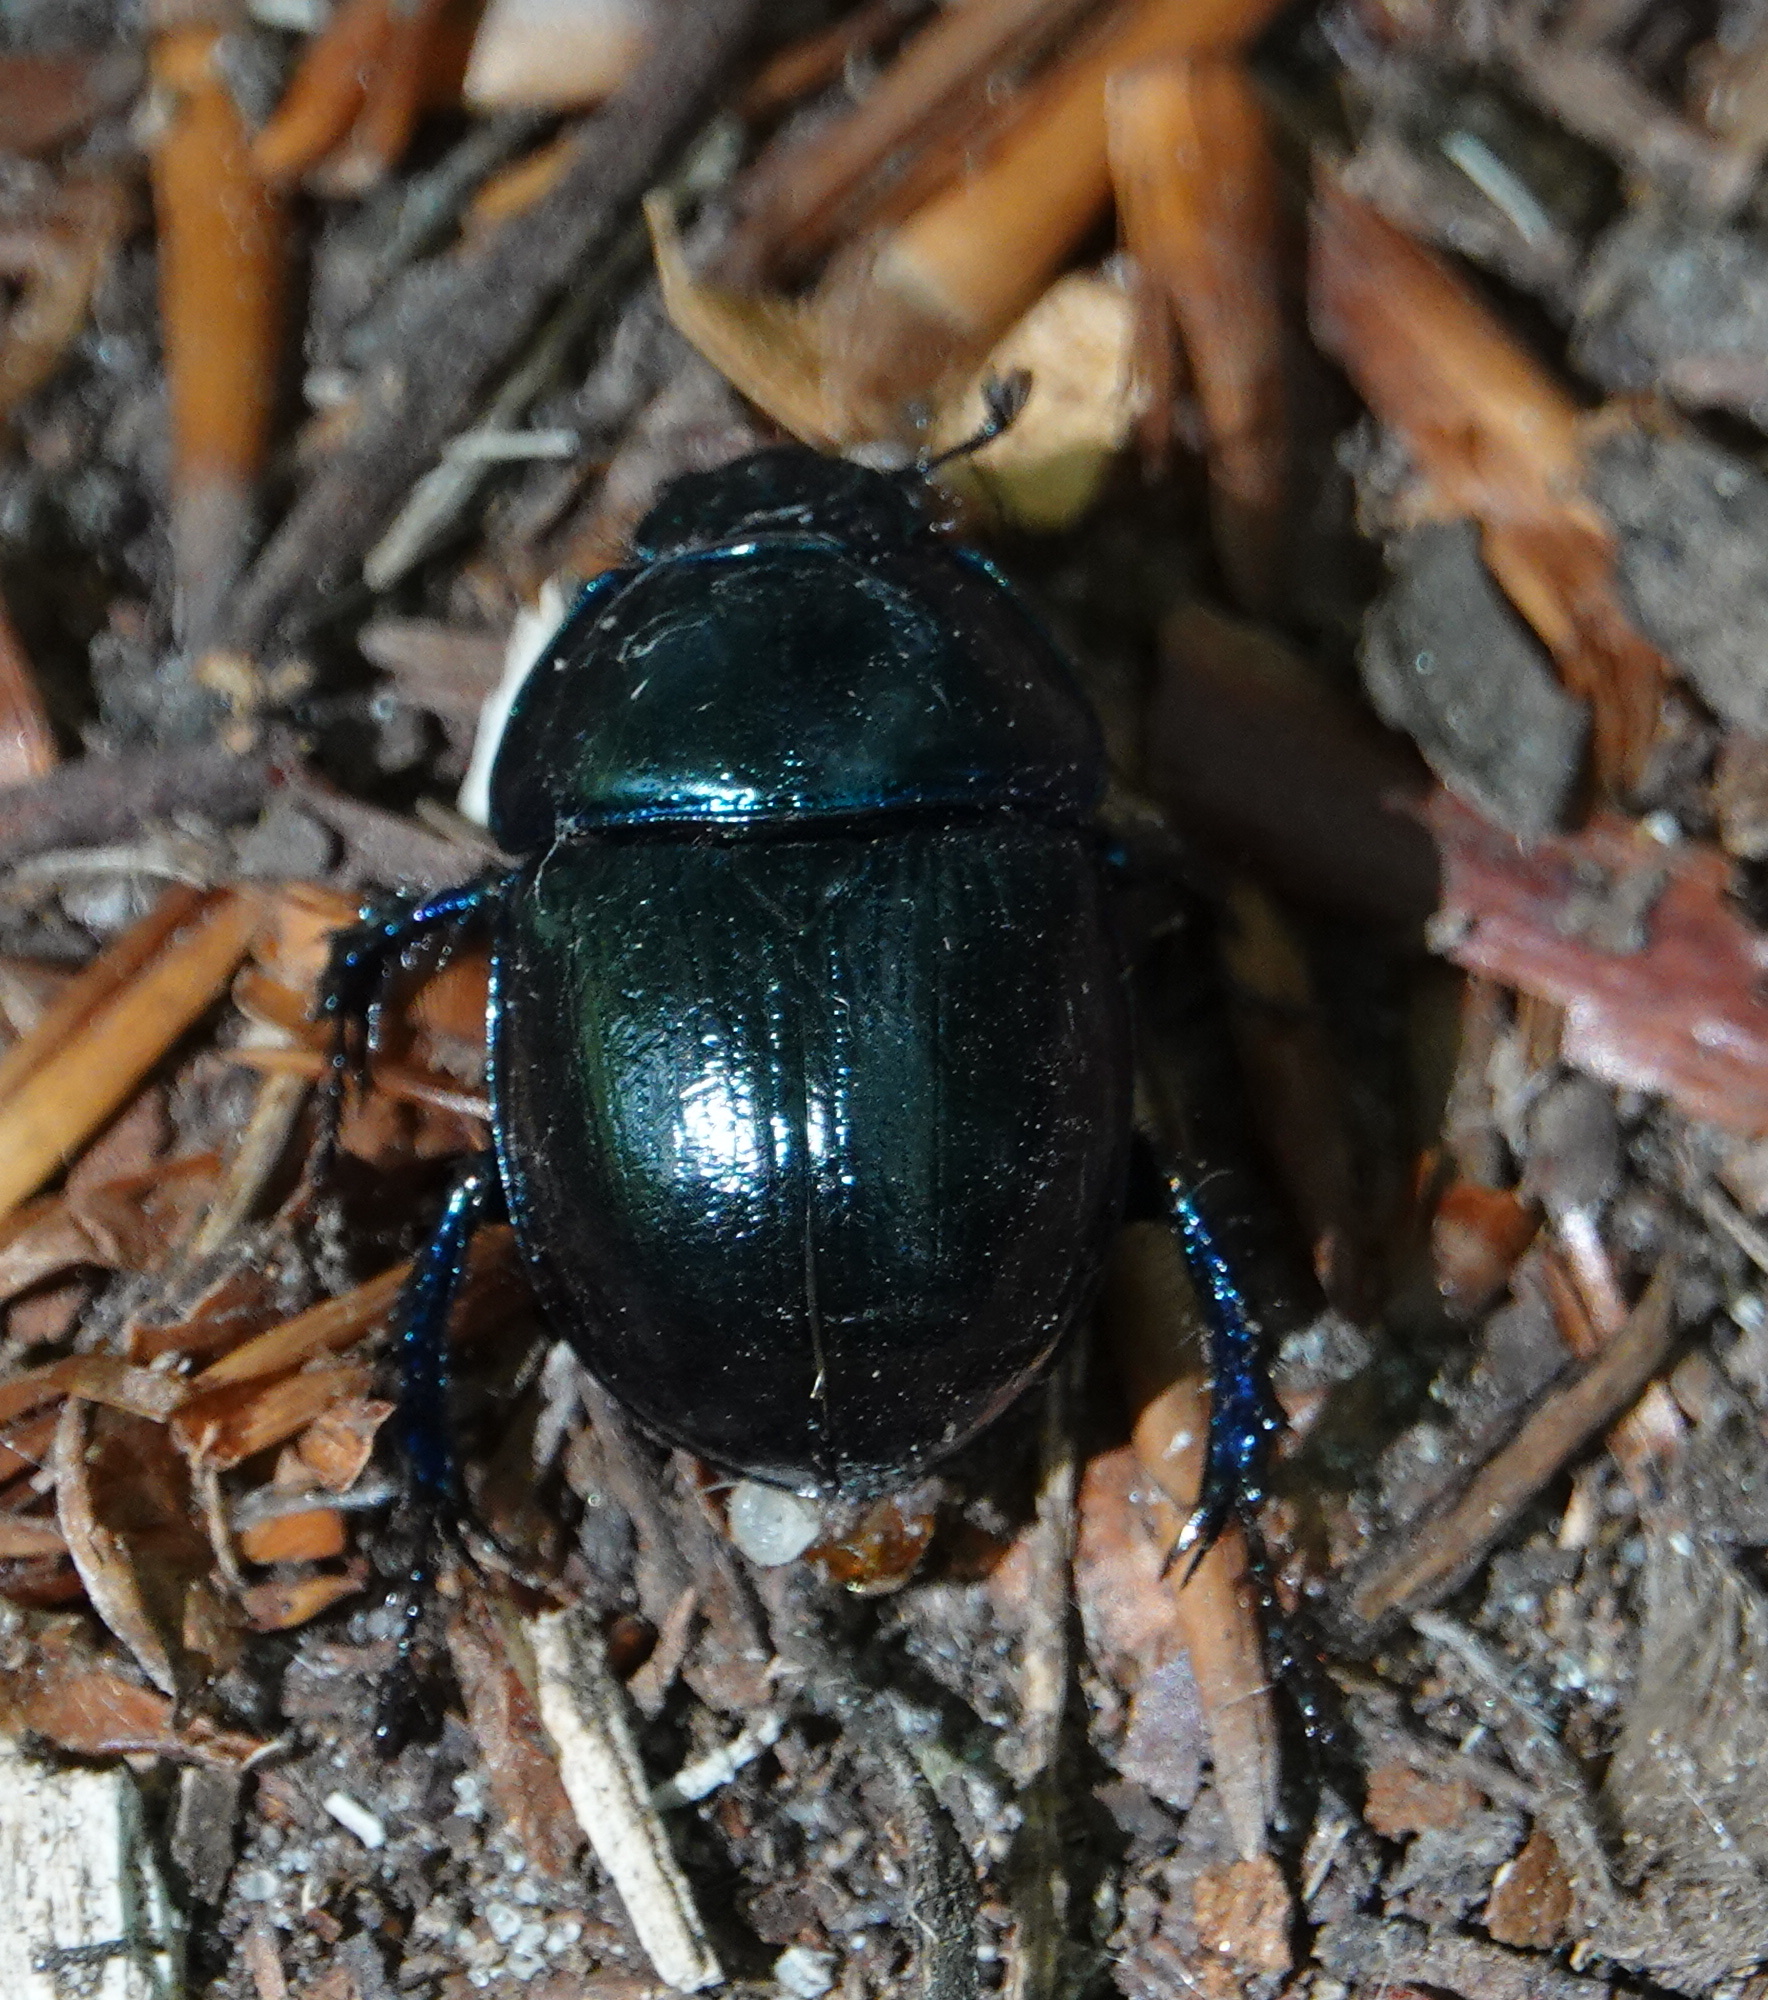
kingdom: Animalia
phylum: Arthropoda
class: Insecta
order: Coleoptera
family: Geotrupidae
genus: Anoplotrupes
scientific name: Anoplotrupes stercorosus
